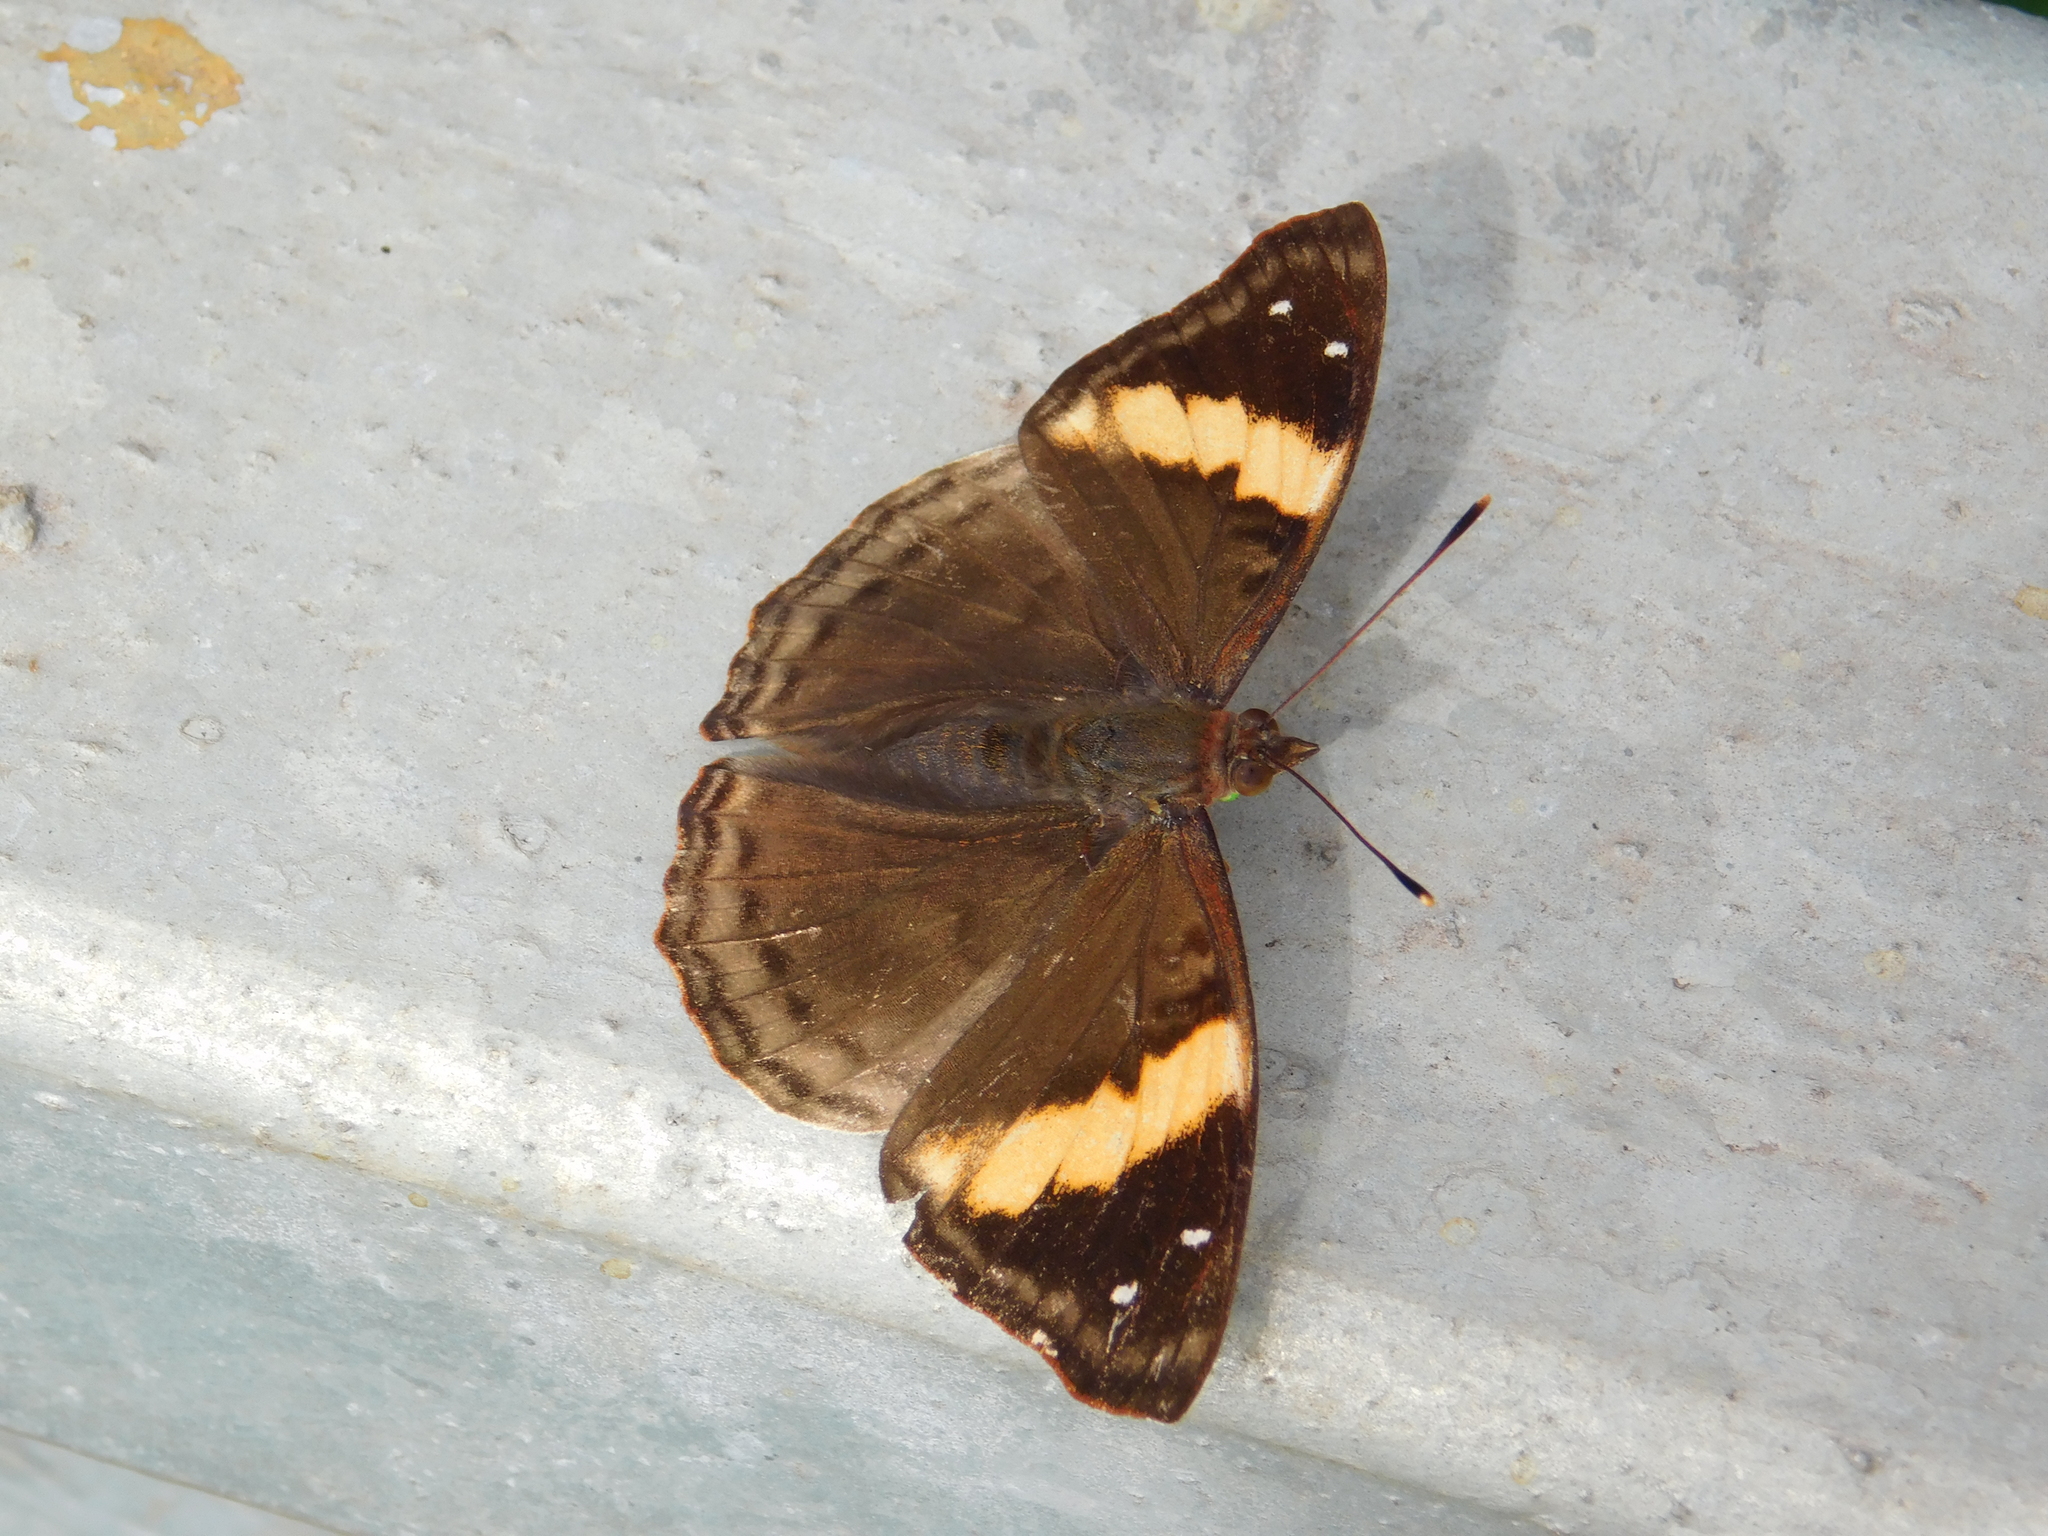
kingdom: Animalia
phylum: Arthropoda
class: Insecta
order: Lepidoptera
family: Nymphalidae
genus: Doxocopa
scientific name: Doxocopa agathina
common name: Agathina emperor
